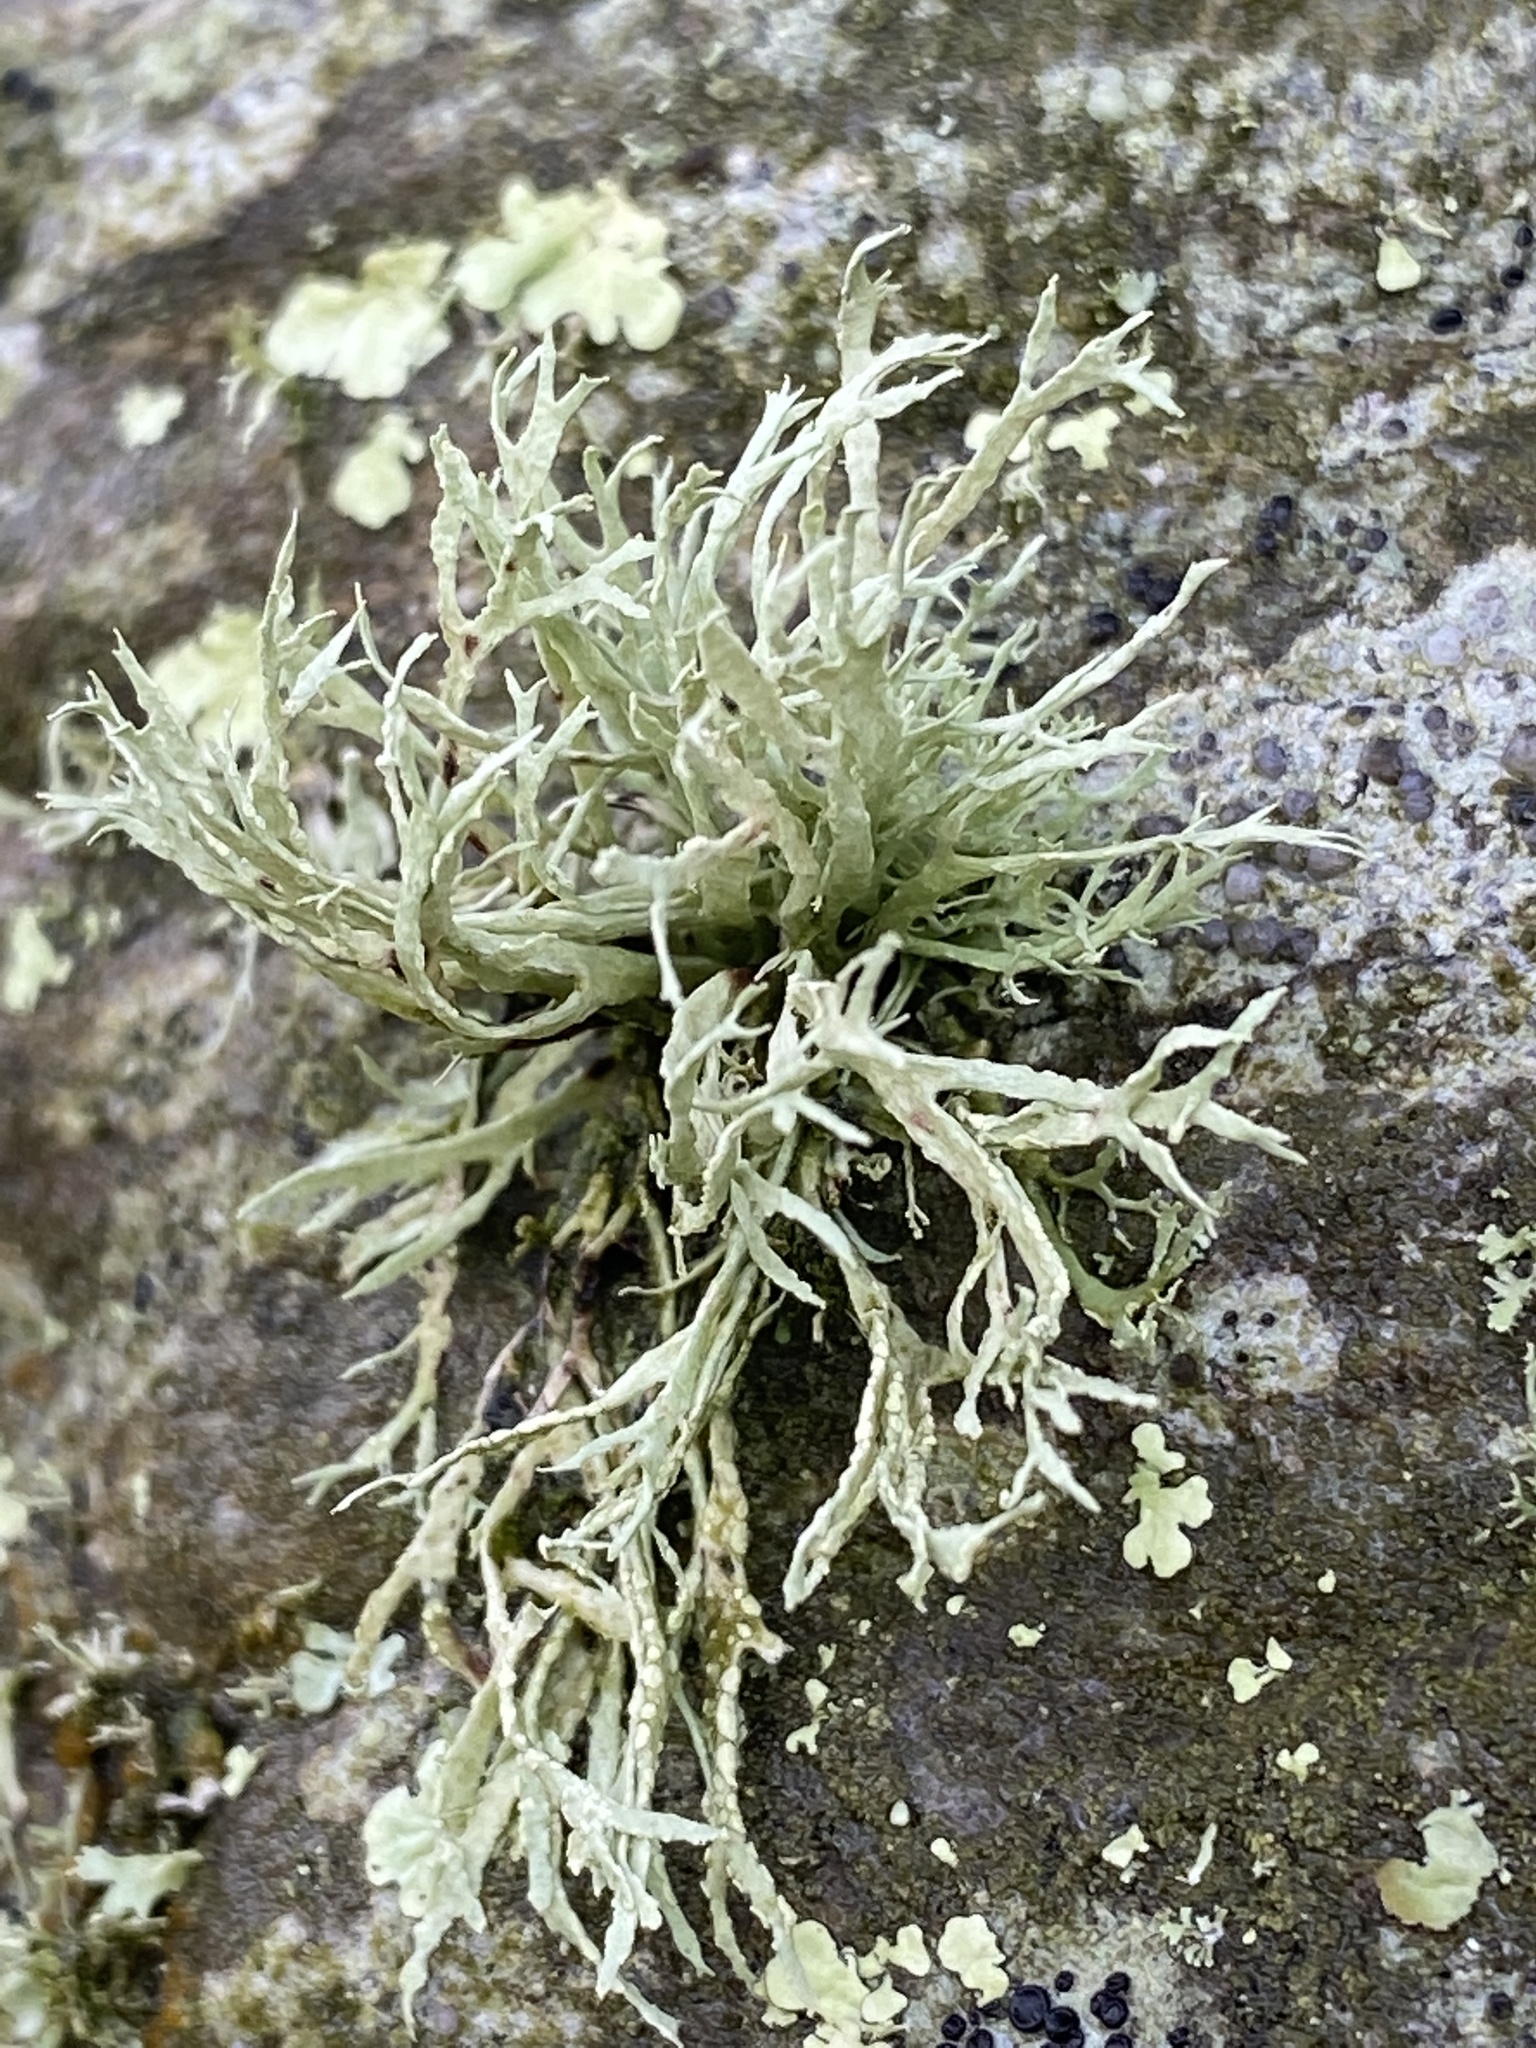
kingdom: Fungi
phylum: Ascomycota
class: Lecanoromycetes
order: Lecanorales
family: Ramalinaceae
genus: Ramalina
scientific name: Ramalina farinacea
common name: Farinose cartilage lichen
